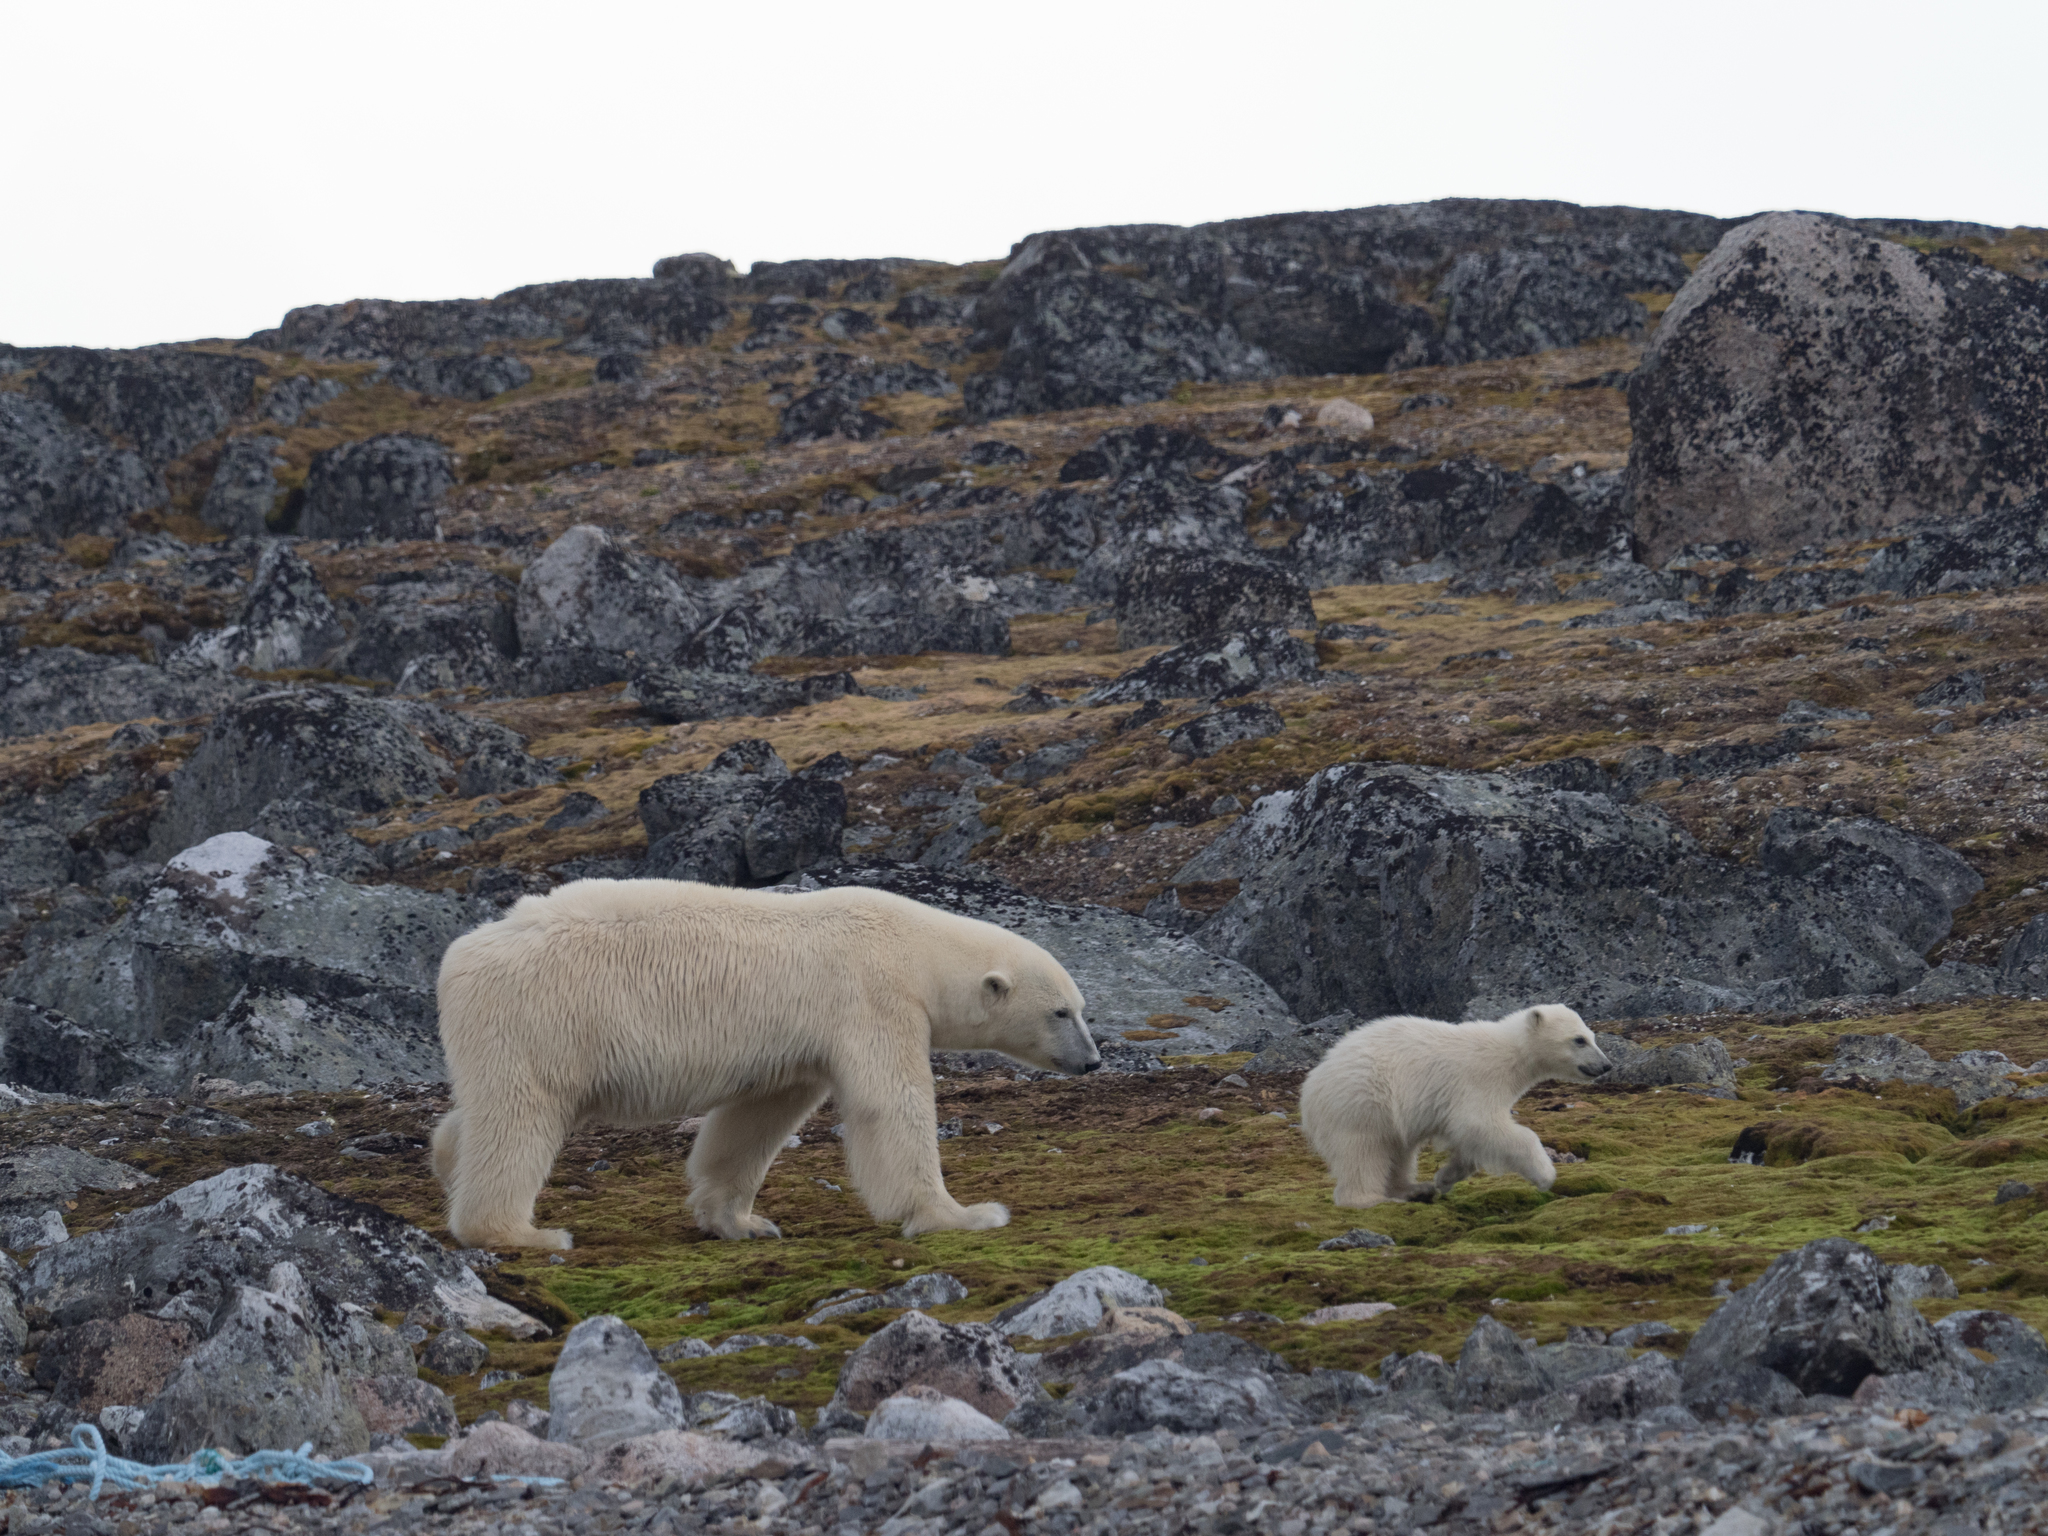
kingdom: Animalia
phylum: Chordata
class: Mammalia
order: Carnivora
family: Ursidae
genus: Ursus
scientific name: Ursus maritimus
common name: Polar bear
